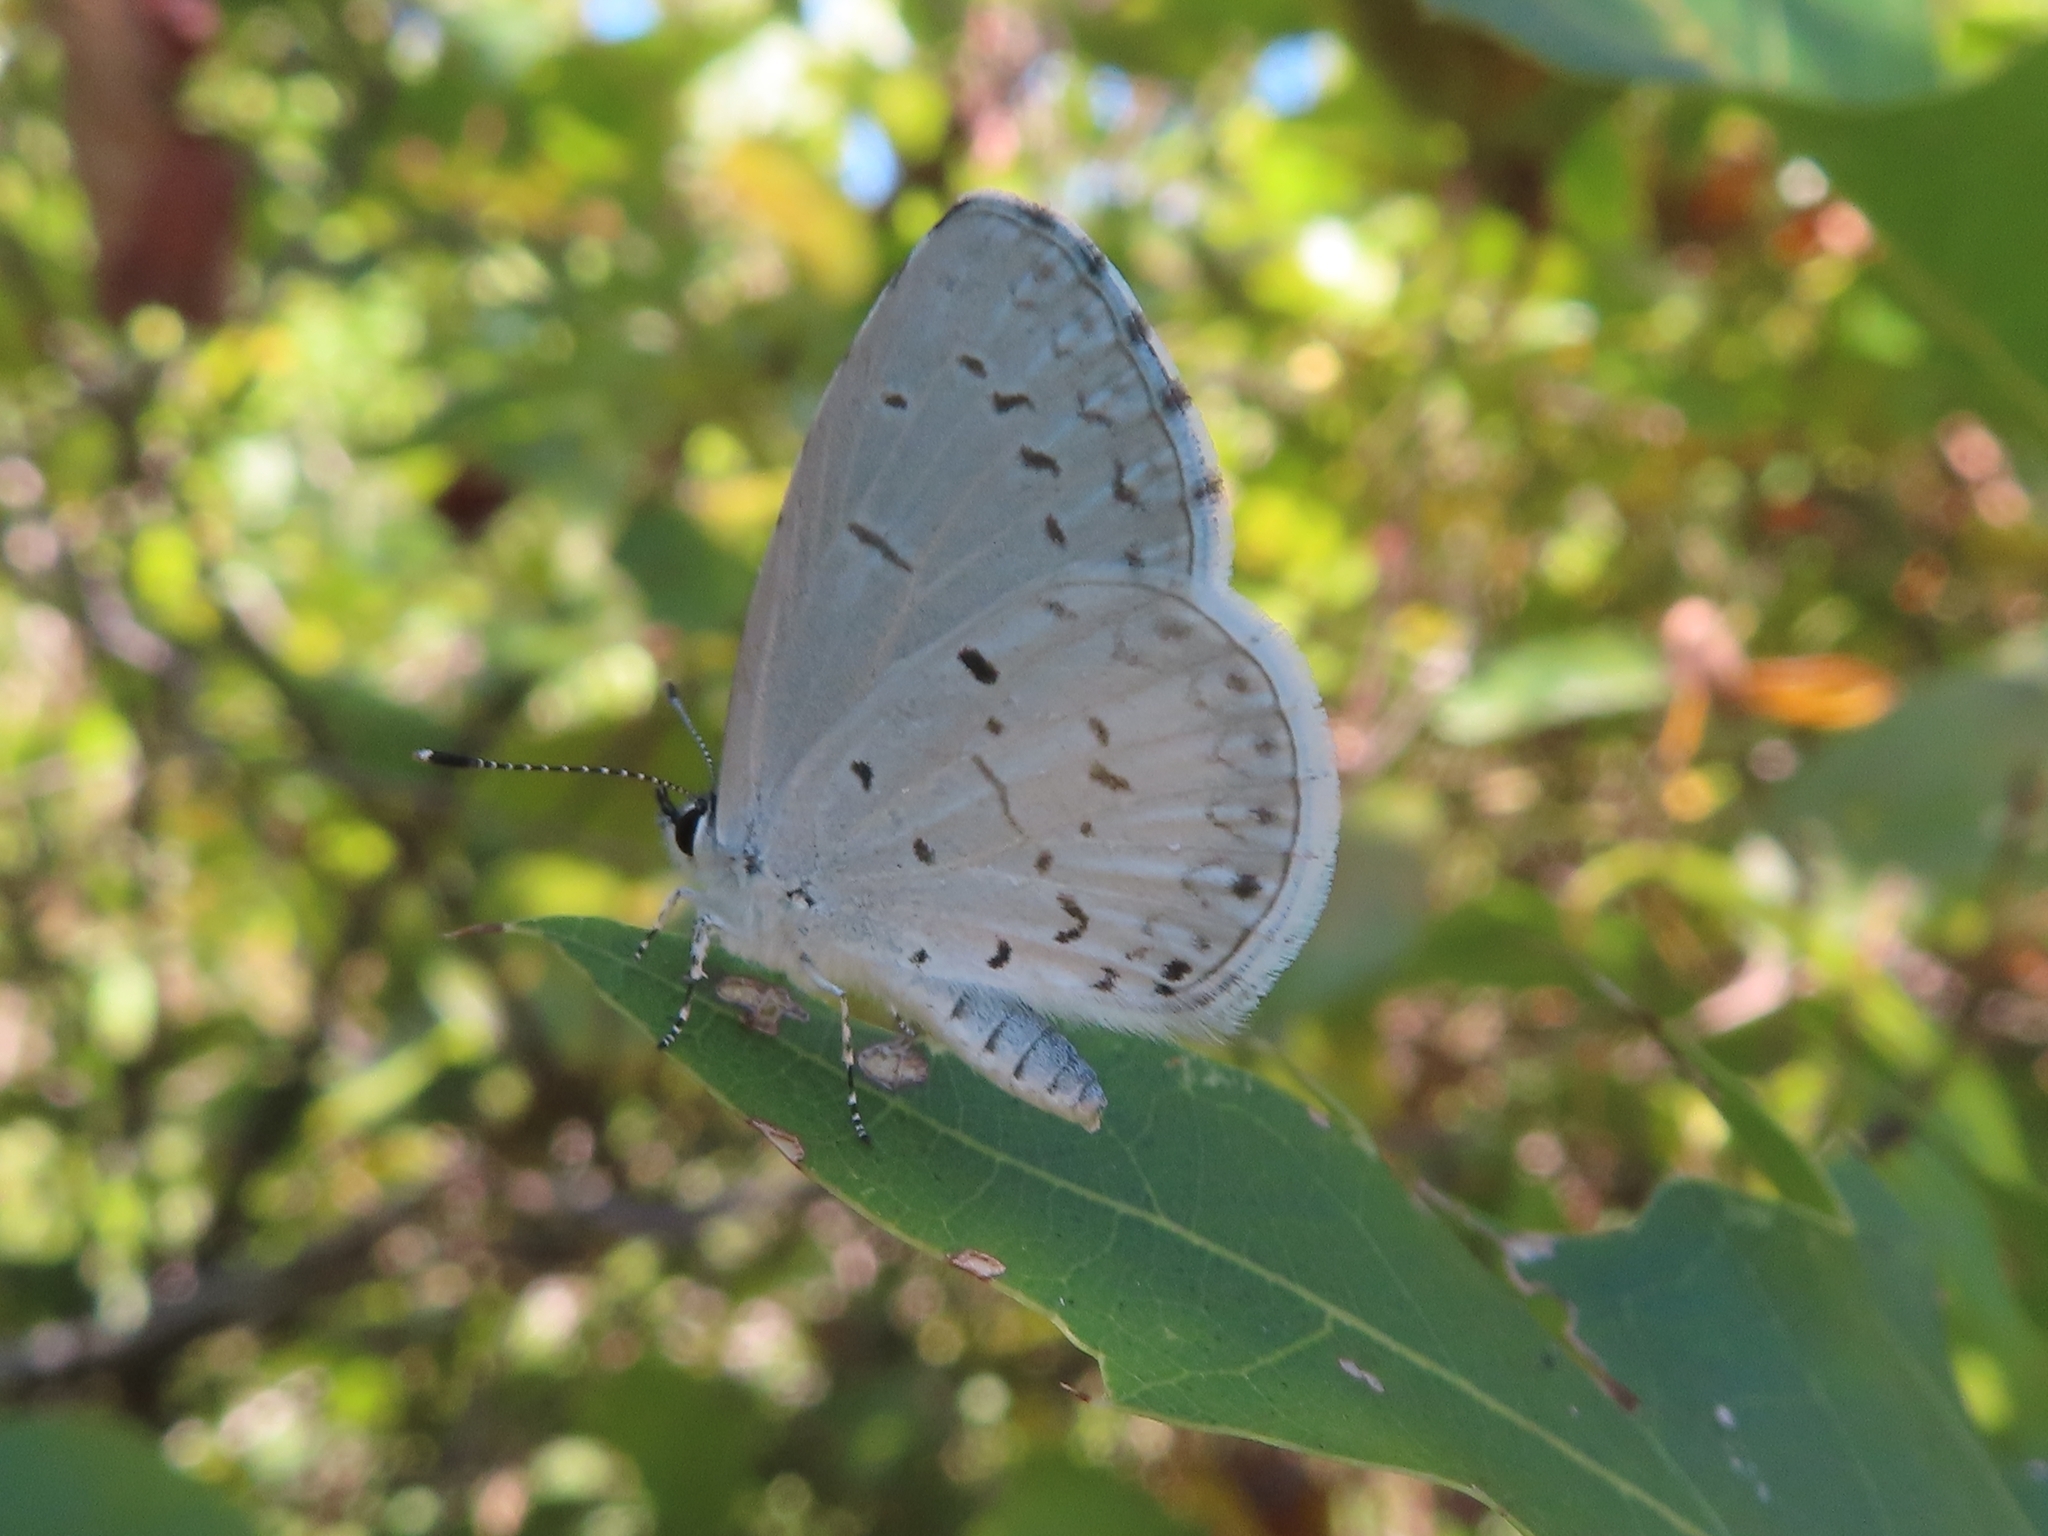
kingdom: Animalia
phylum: Arthropoda
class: Insecta
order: Lepidoptera
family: Lycaenidae
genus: Cyaniris
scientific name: Cyaniris neglecta
